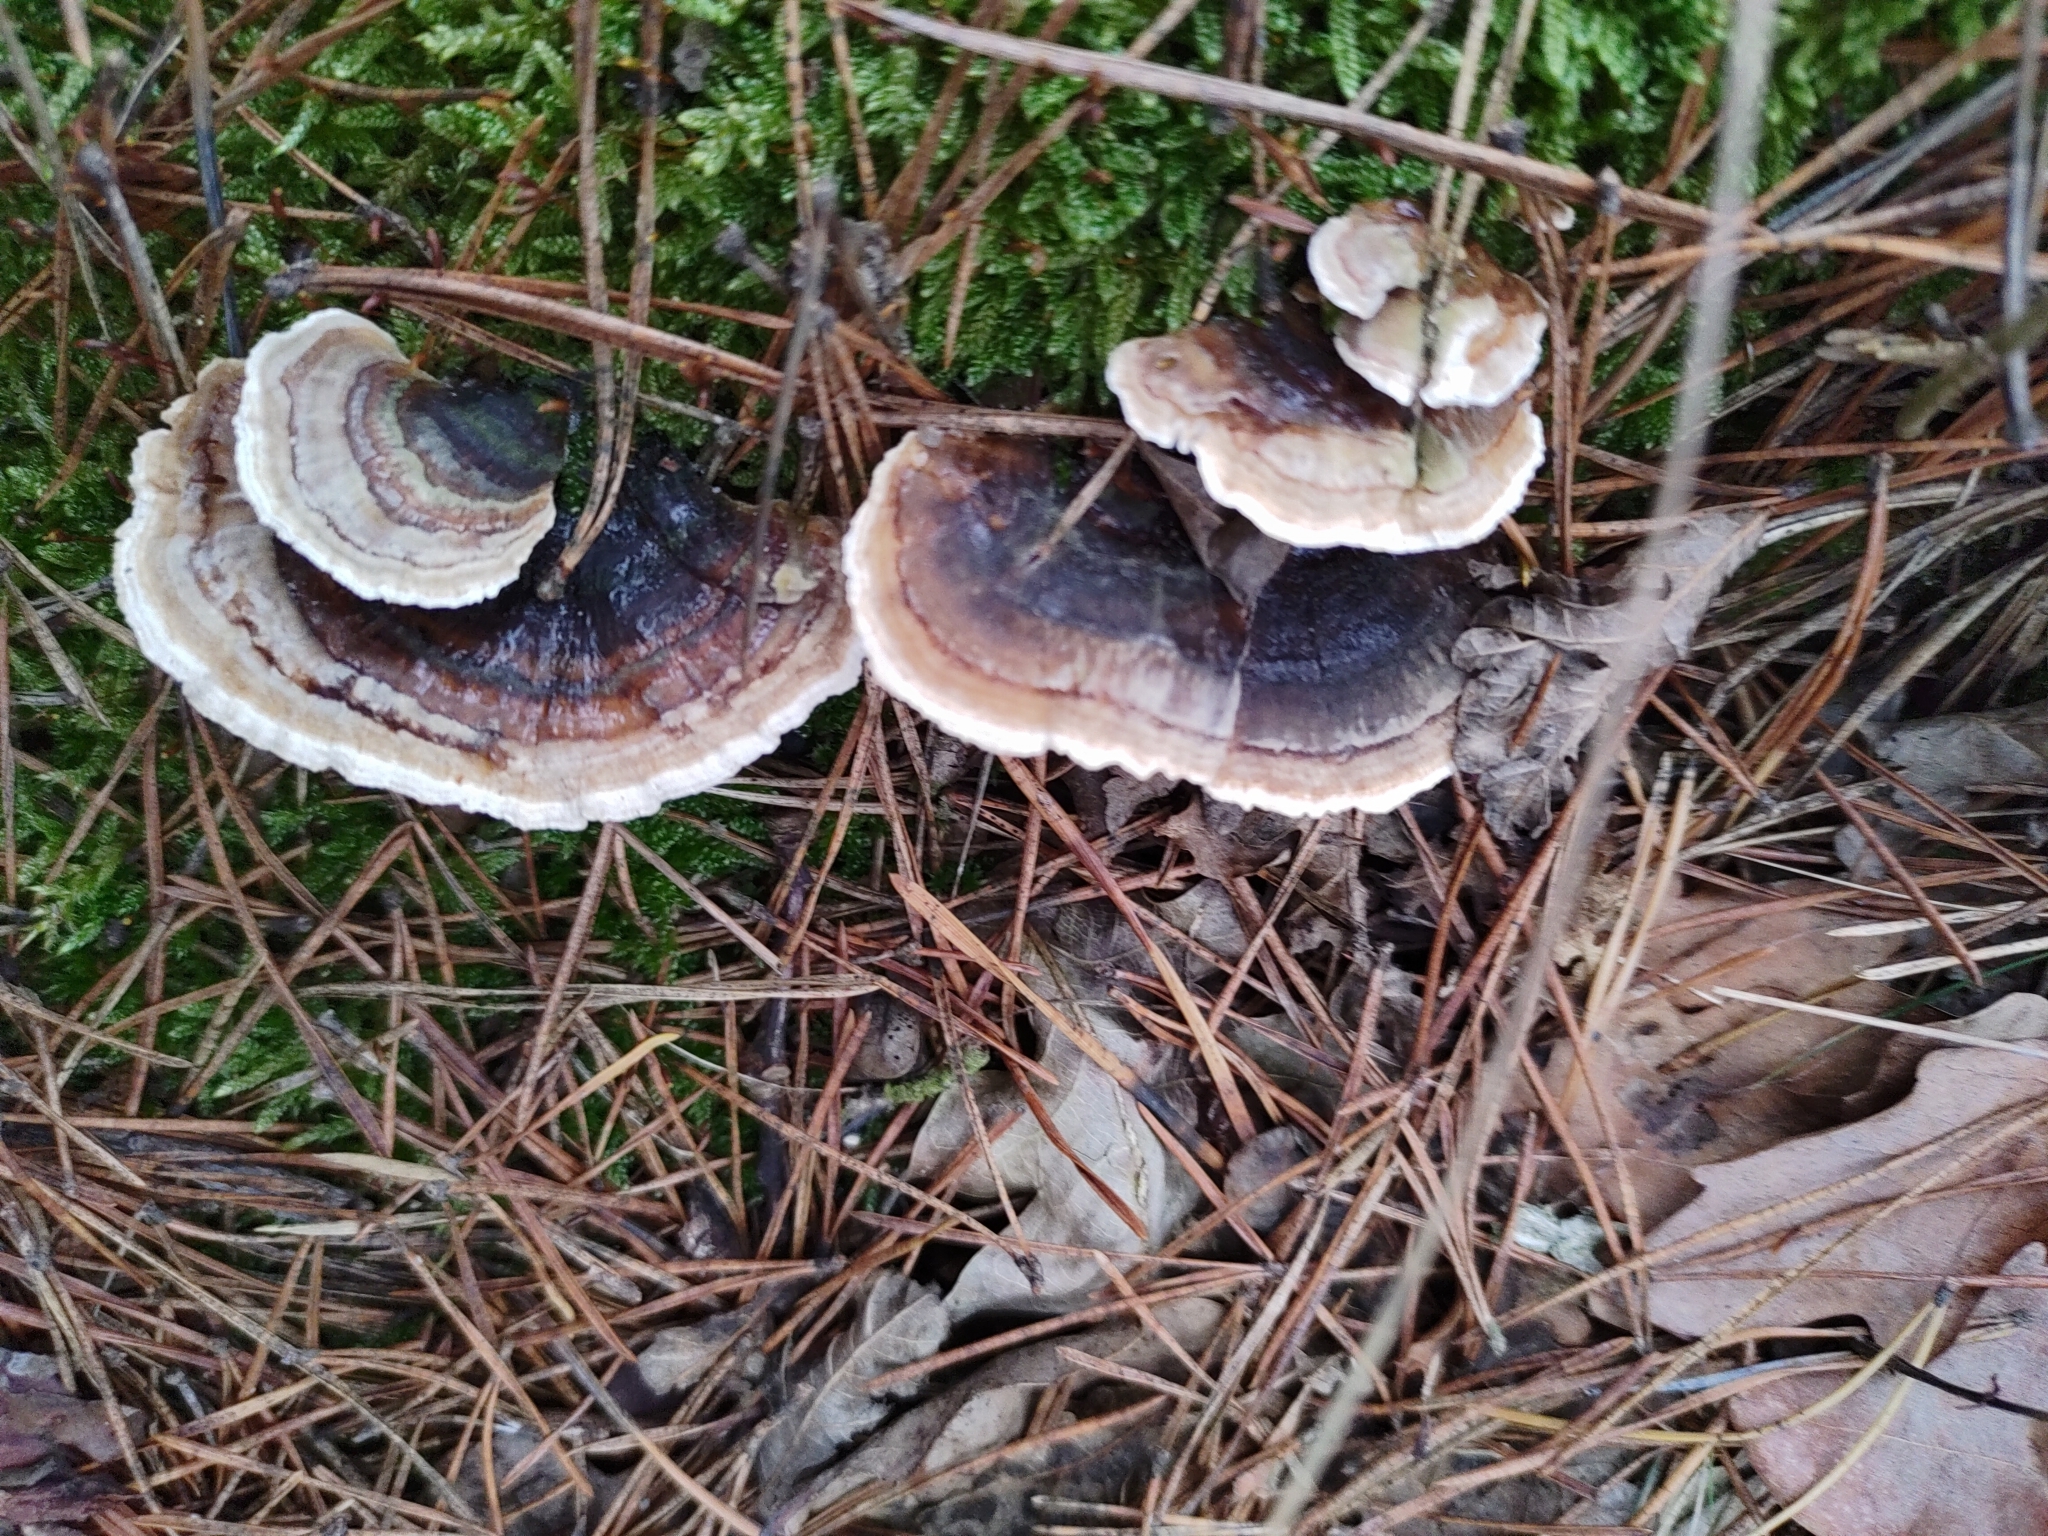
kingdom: Fungi
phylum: Basidiomycota
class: Agaricomycetes
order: Polyporales
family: Polyporaceae
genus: Trametes
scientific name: Trametes versicolor
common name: Turkeytail
